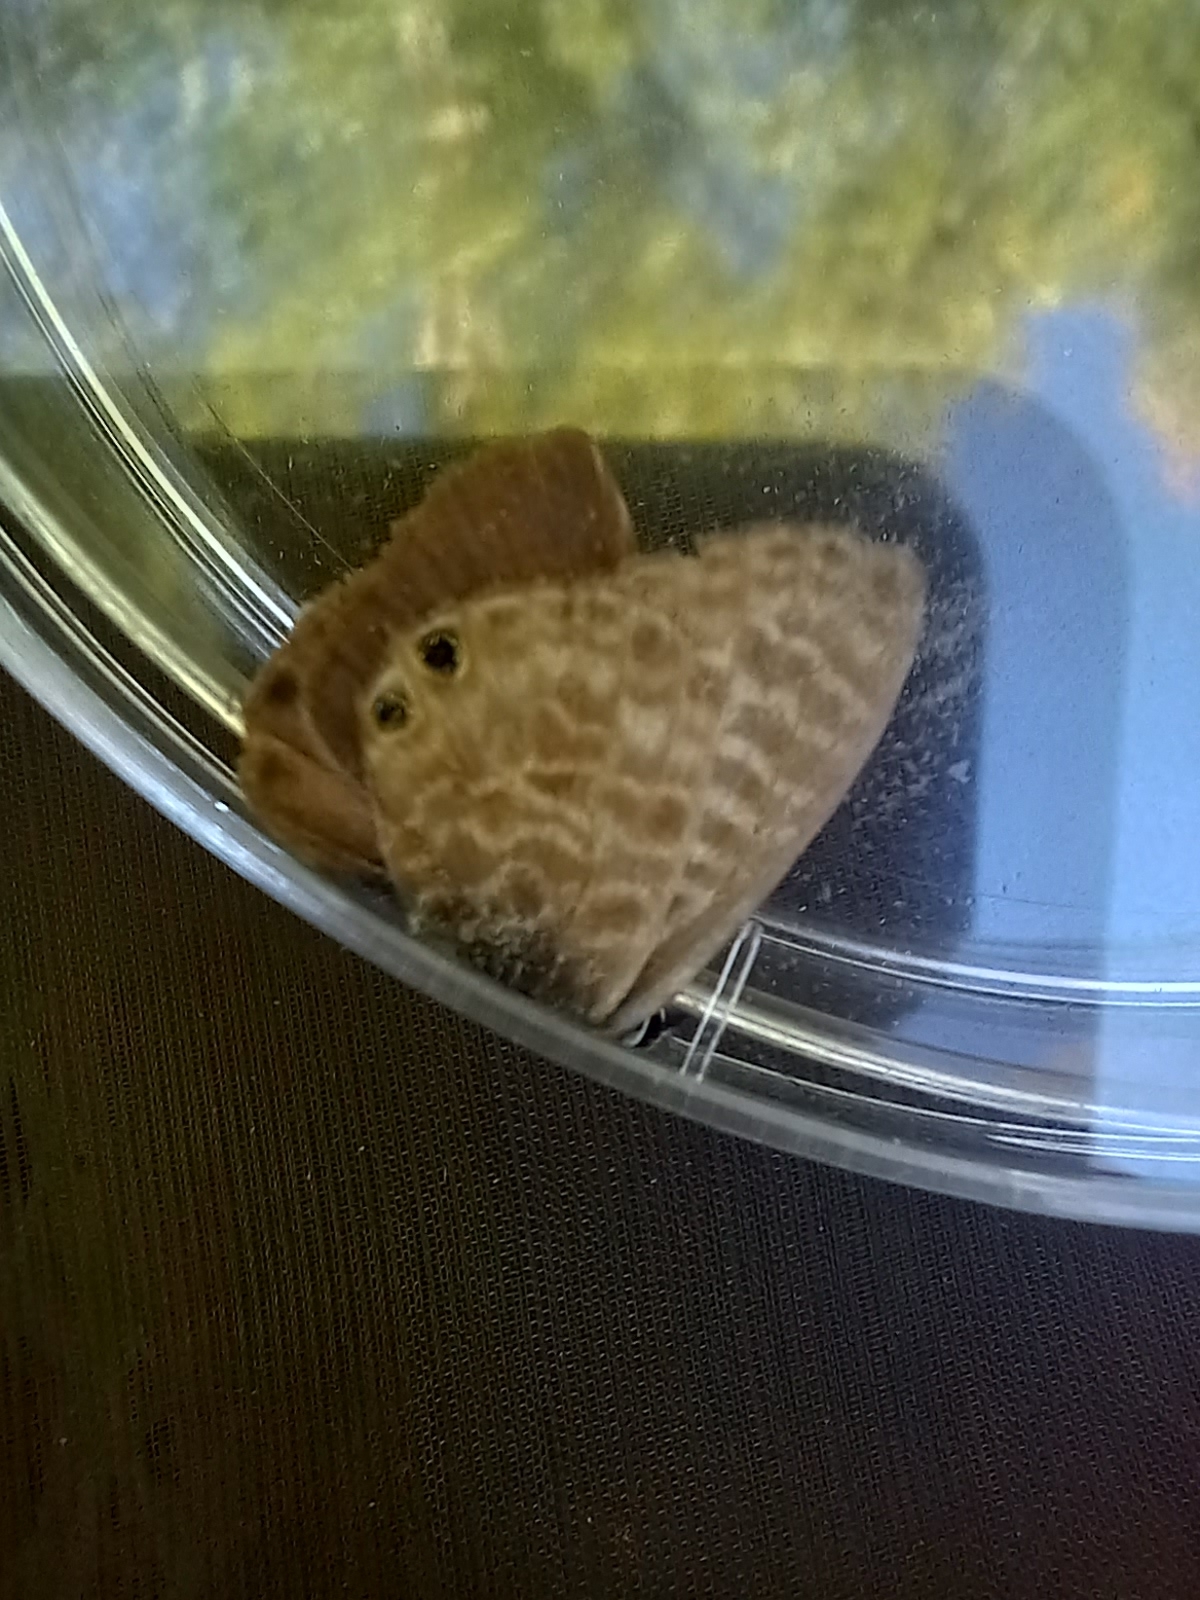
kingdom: Animalia
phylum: Arthropoda
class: Insecta
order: Lepidoptera
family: Lycaenidae
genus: Leptotes
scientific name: Leptotes pirithous
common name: Lang's short-tailed blue
